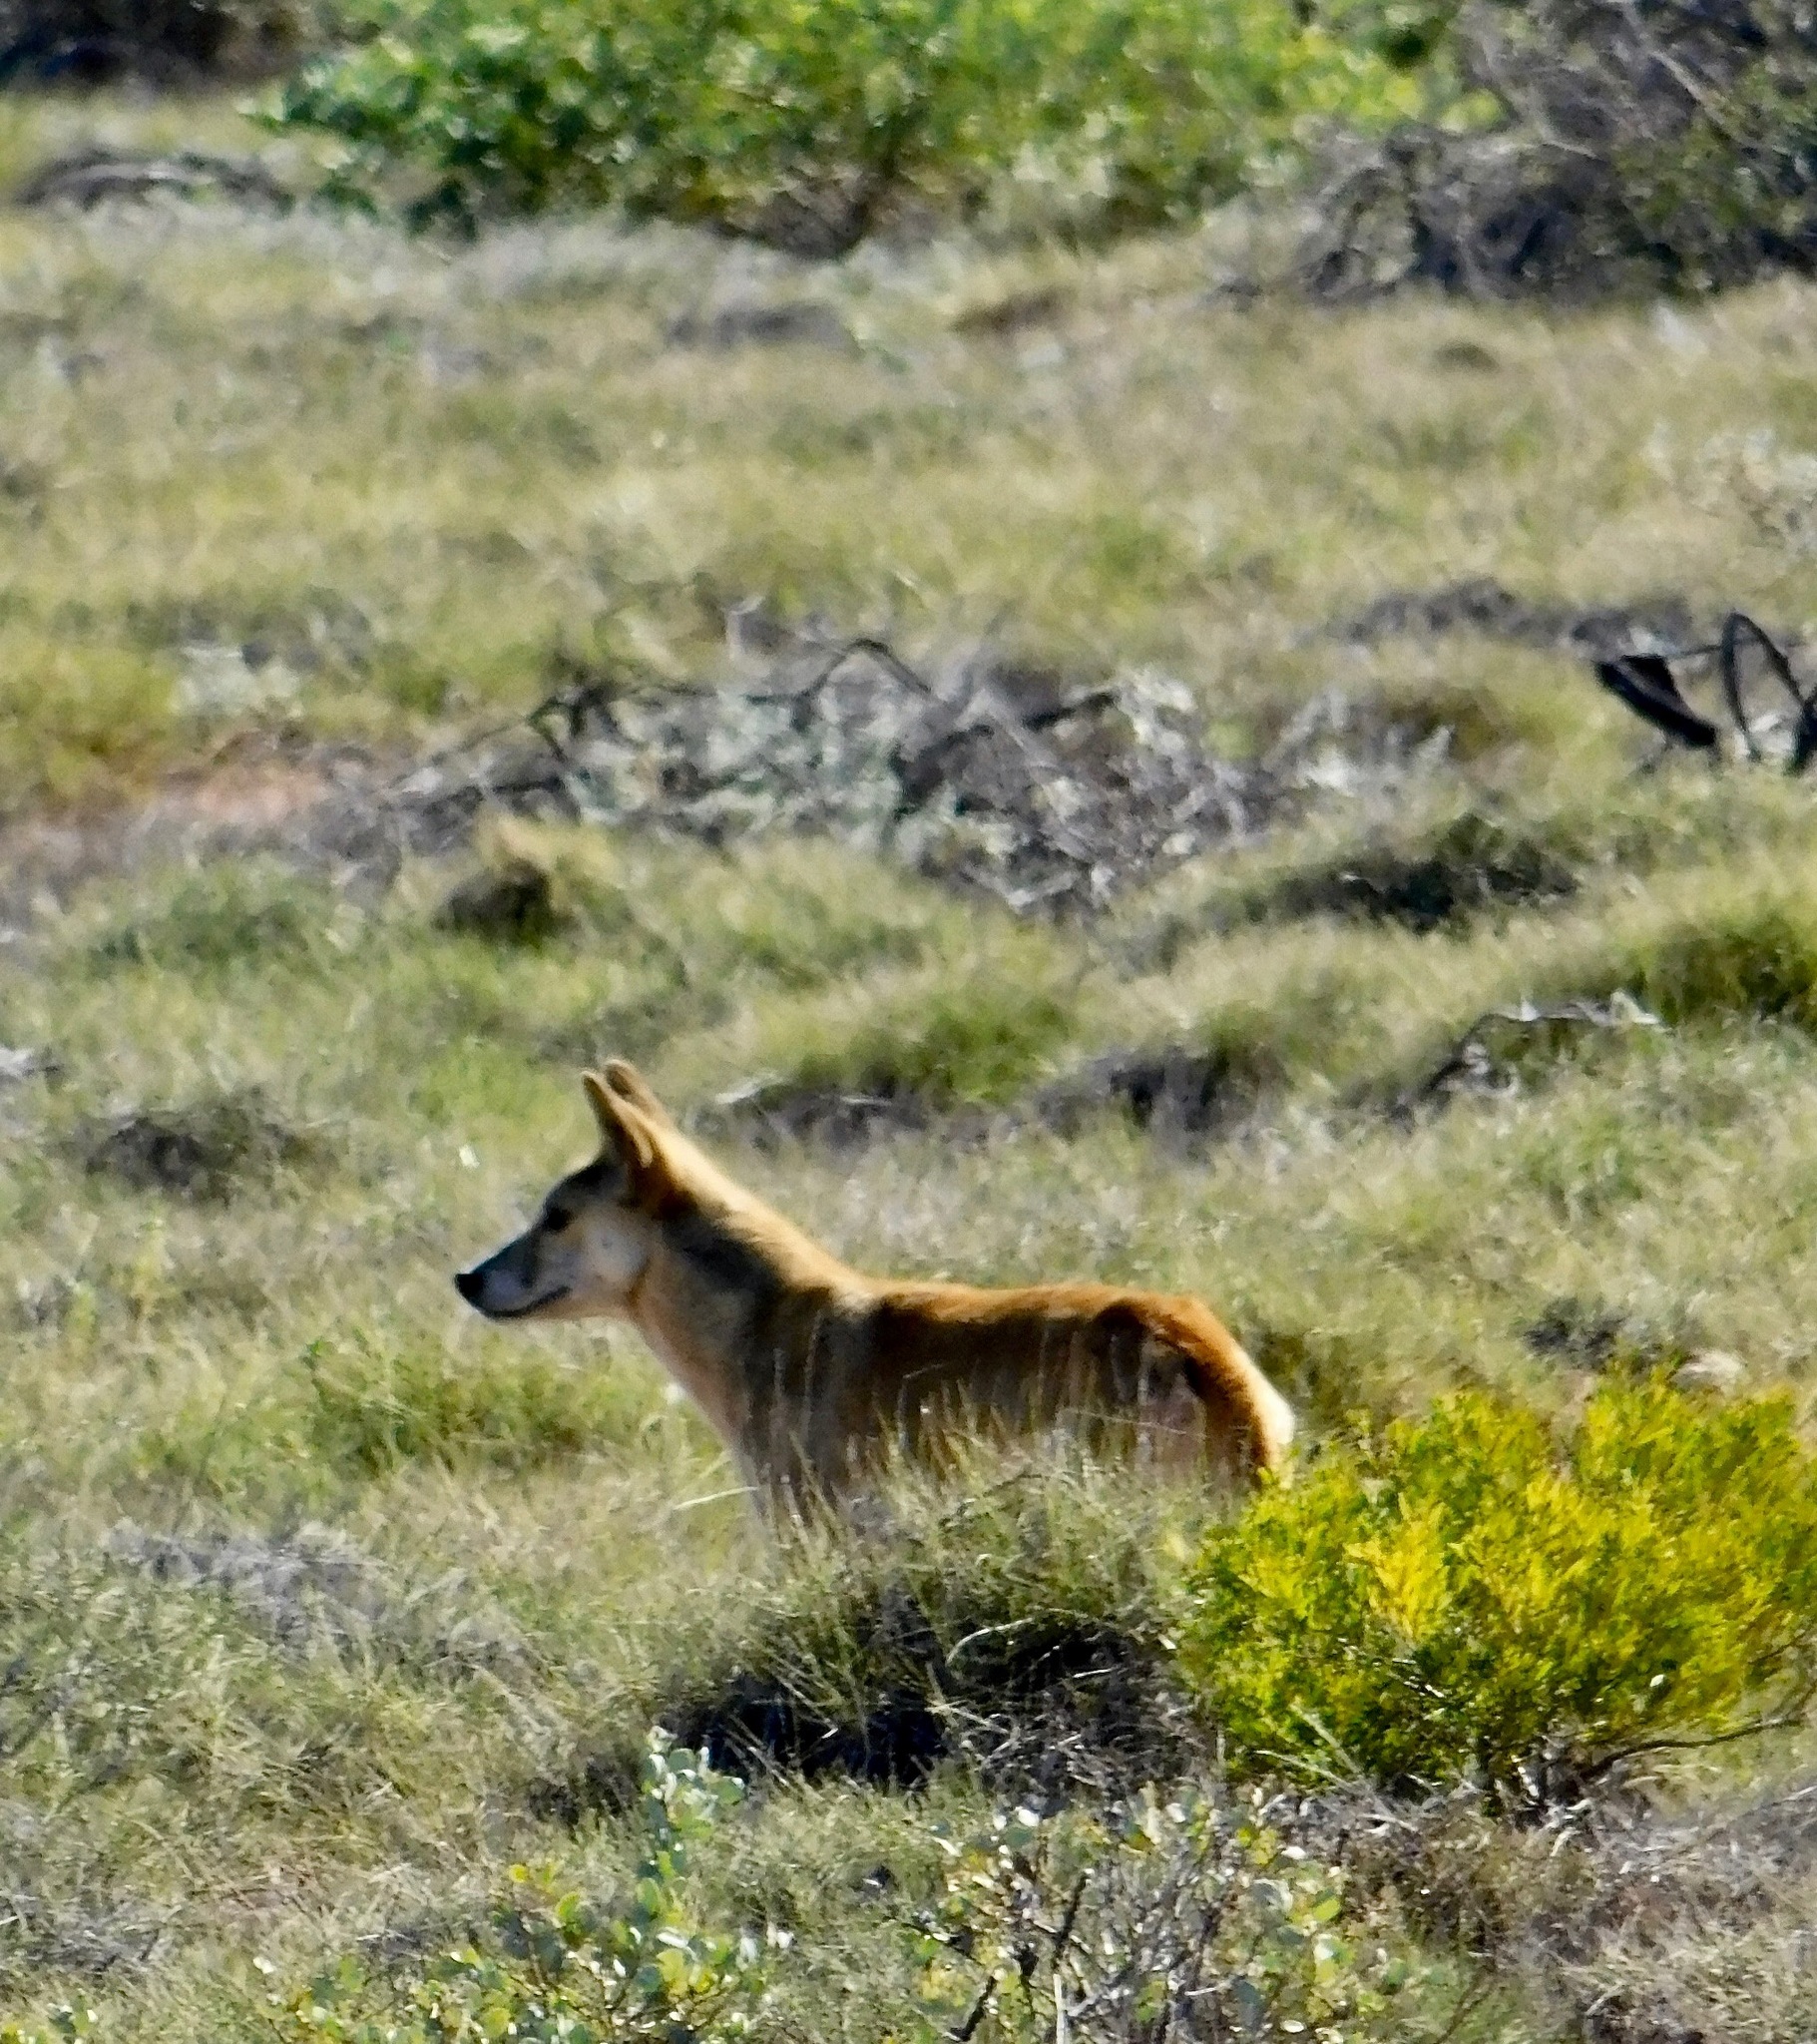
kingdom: Animalia
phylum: Chordata
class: Mammalia
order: Carnivora
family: Canidae
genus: Canis
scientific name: Canis lupus
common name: Gray wolf
